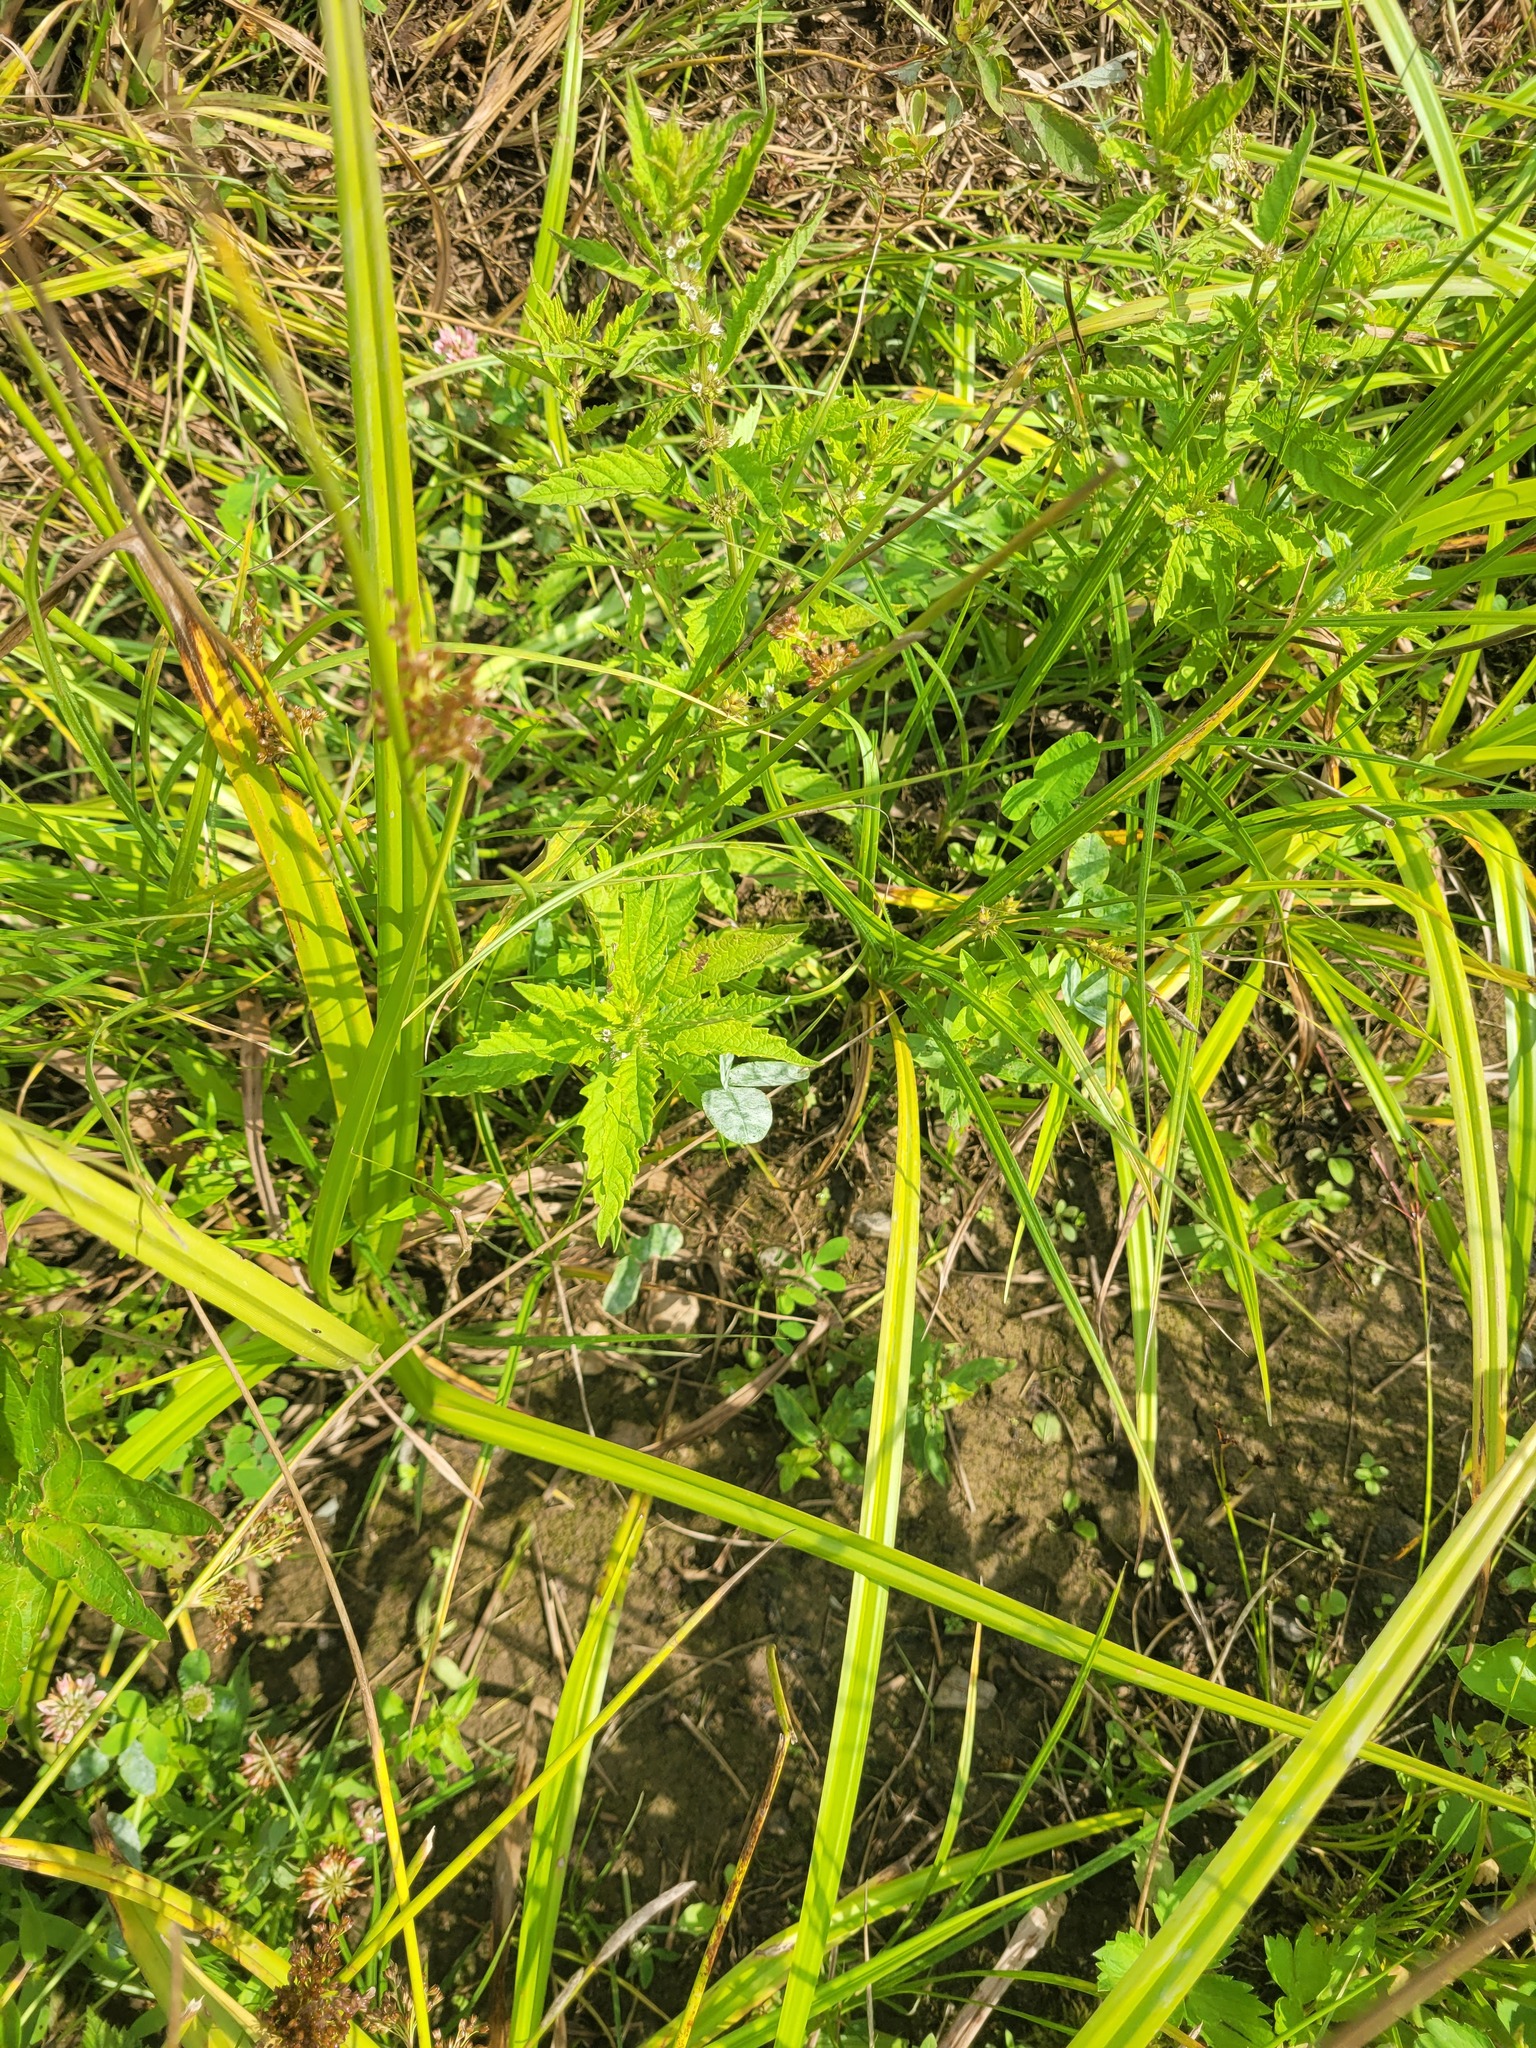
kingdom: Plantae
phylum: Tracheophyta
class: Magnoliopsida
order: Lamiales
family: Lamiaceae
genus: Lycopus
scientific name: Lycopus europaeus
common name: European bugleweed
